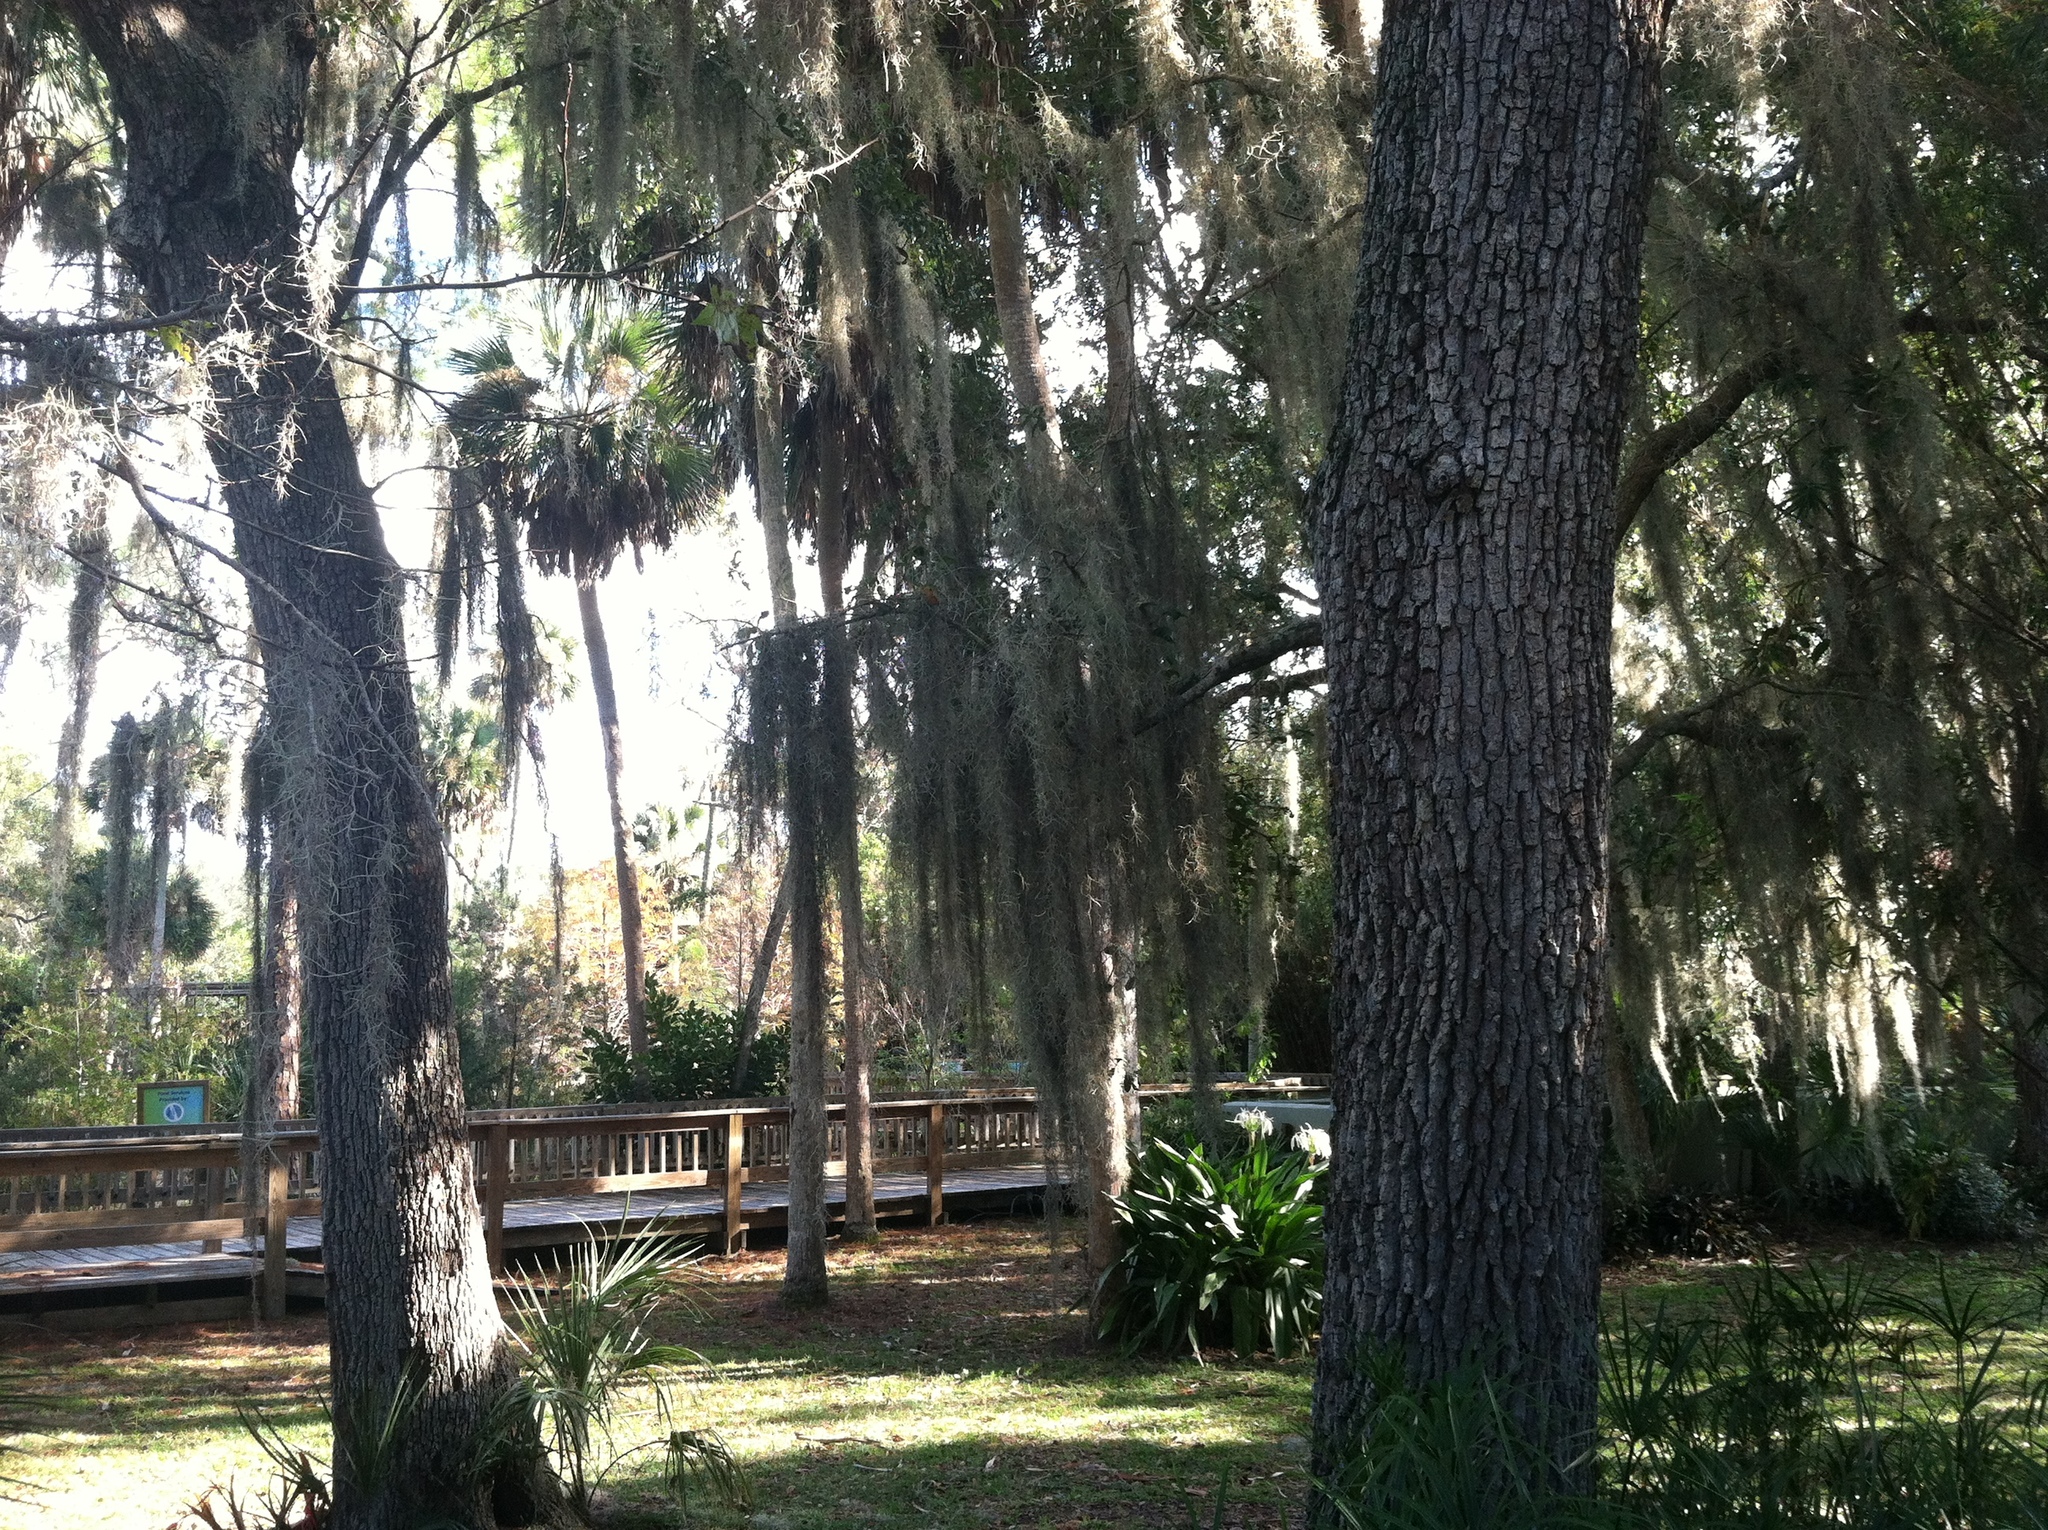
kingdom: Plantae
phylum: Tracheophyta
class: Liliopsida
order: Poales
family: Bromeliaceae
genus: Tillandsia
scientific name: Tillandsia usneoides
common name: Spanish moss
